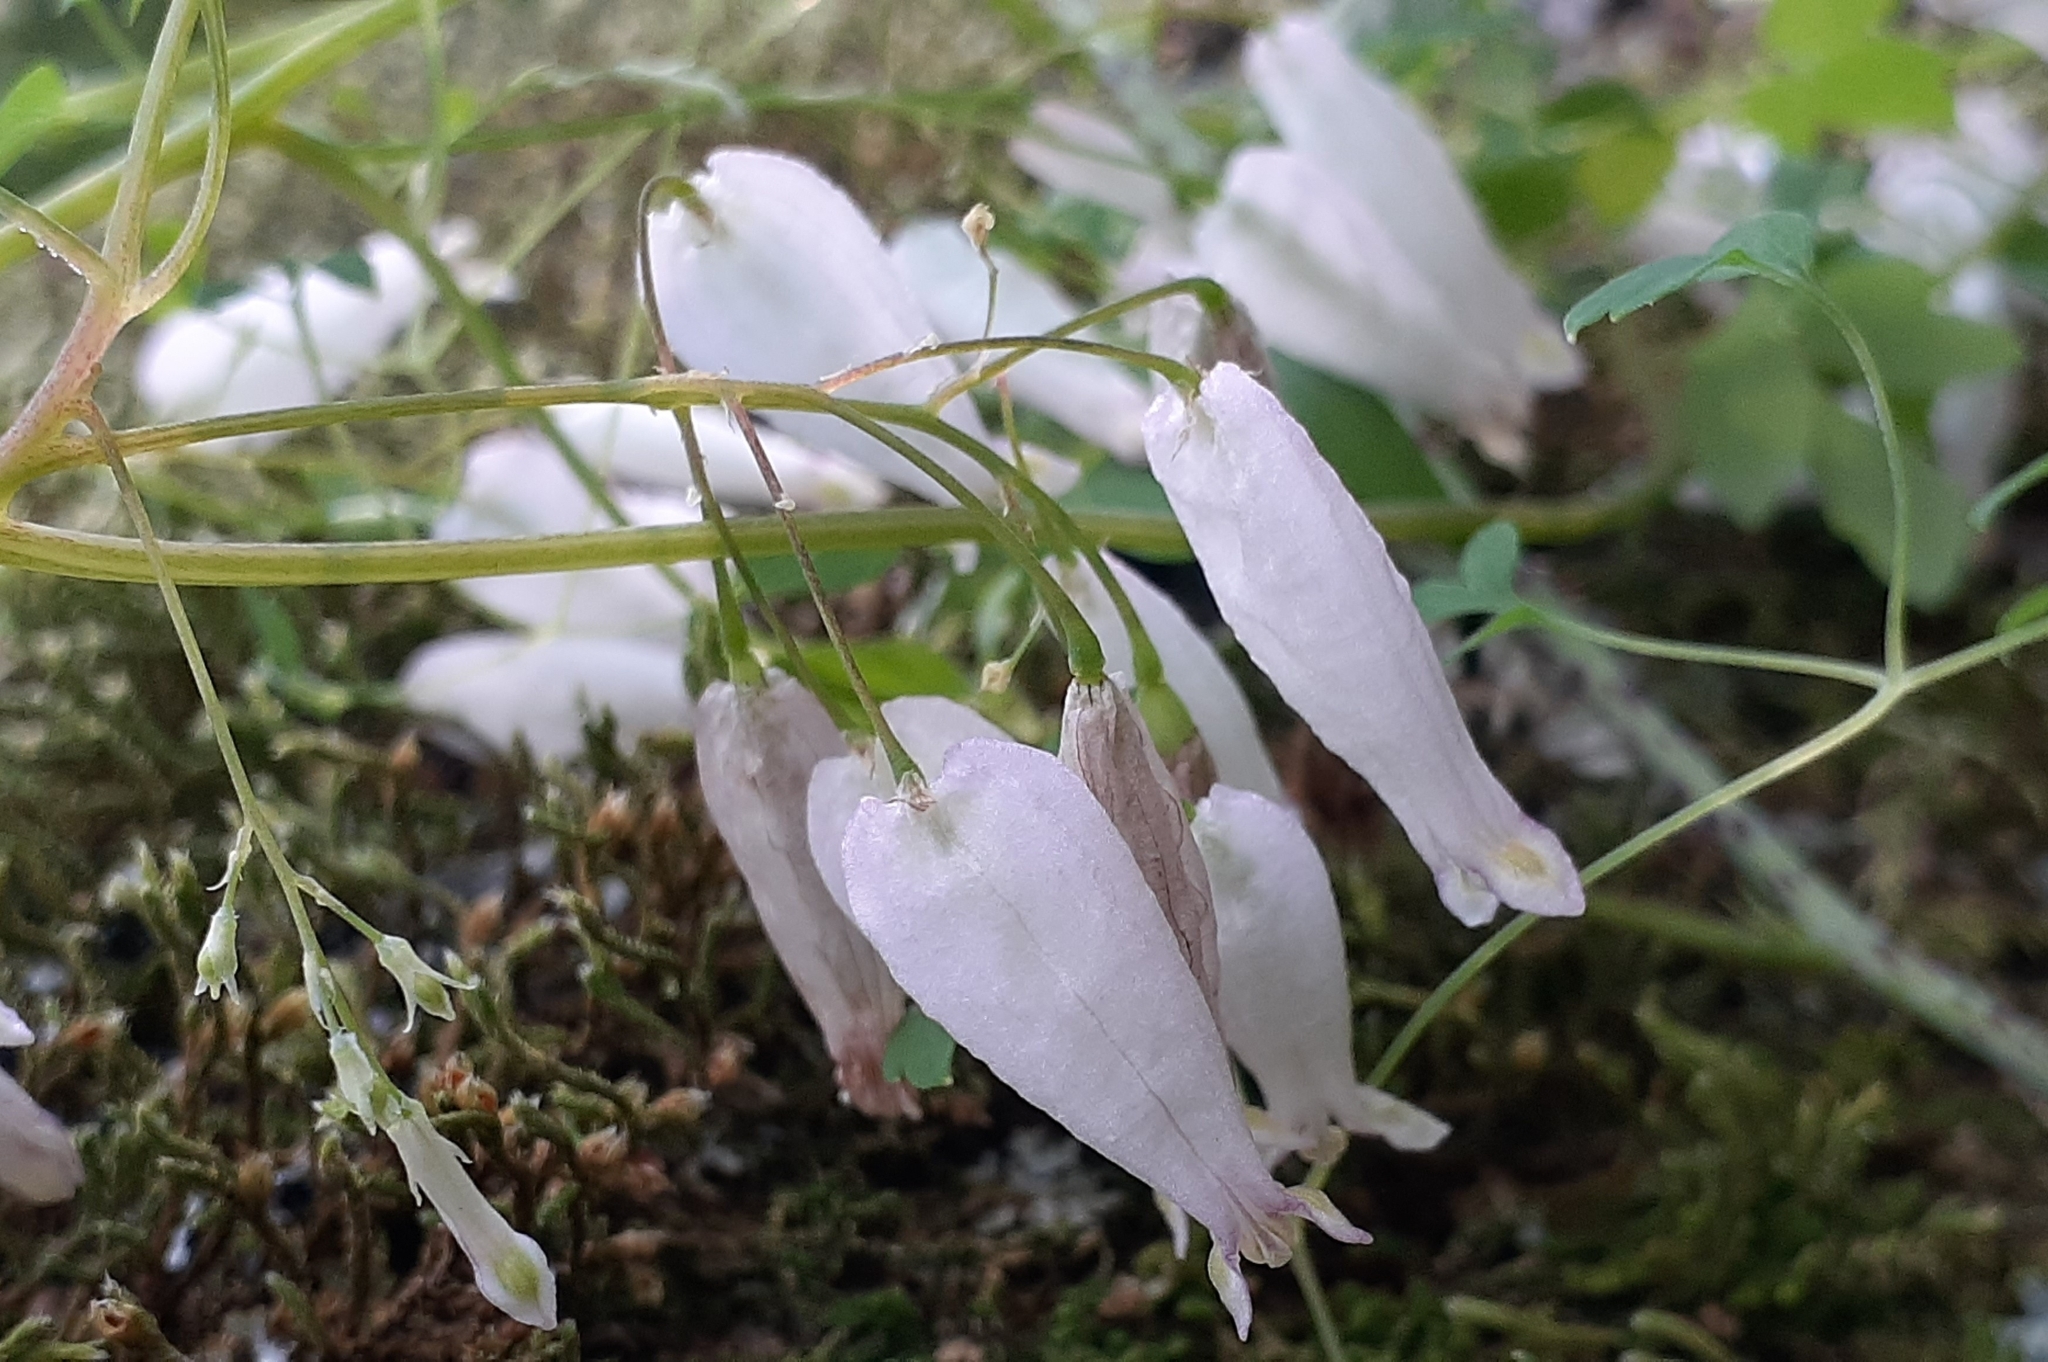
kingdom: Plantae
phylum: Tracheophyta
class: Magnoliopsida
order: Ranunculales
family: Papaveraceae
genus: Adlumia
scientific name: Adlumia fungosa
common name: Mountain-fringe
